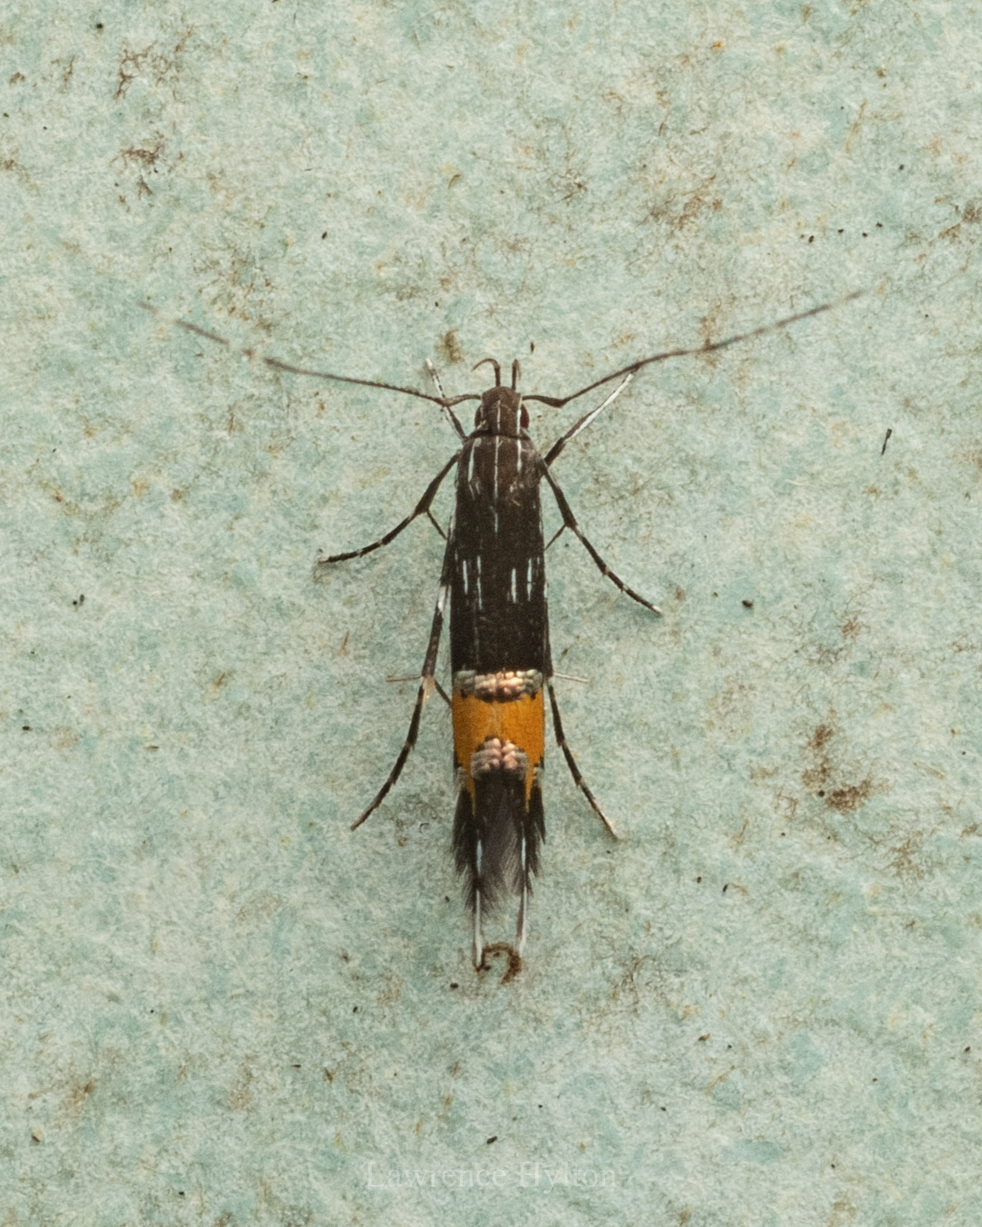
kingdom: Animalia
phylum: Arthropoda
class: Insecta
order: Lepidoptera
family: Cosmopterigidae
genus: Cosmopterix
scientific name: Cosmopterix aculeata
